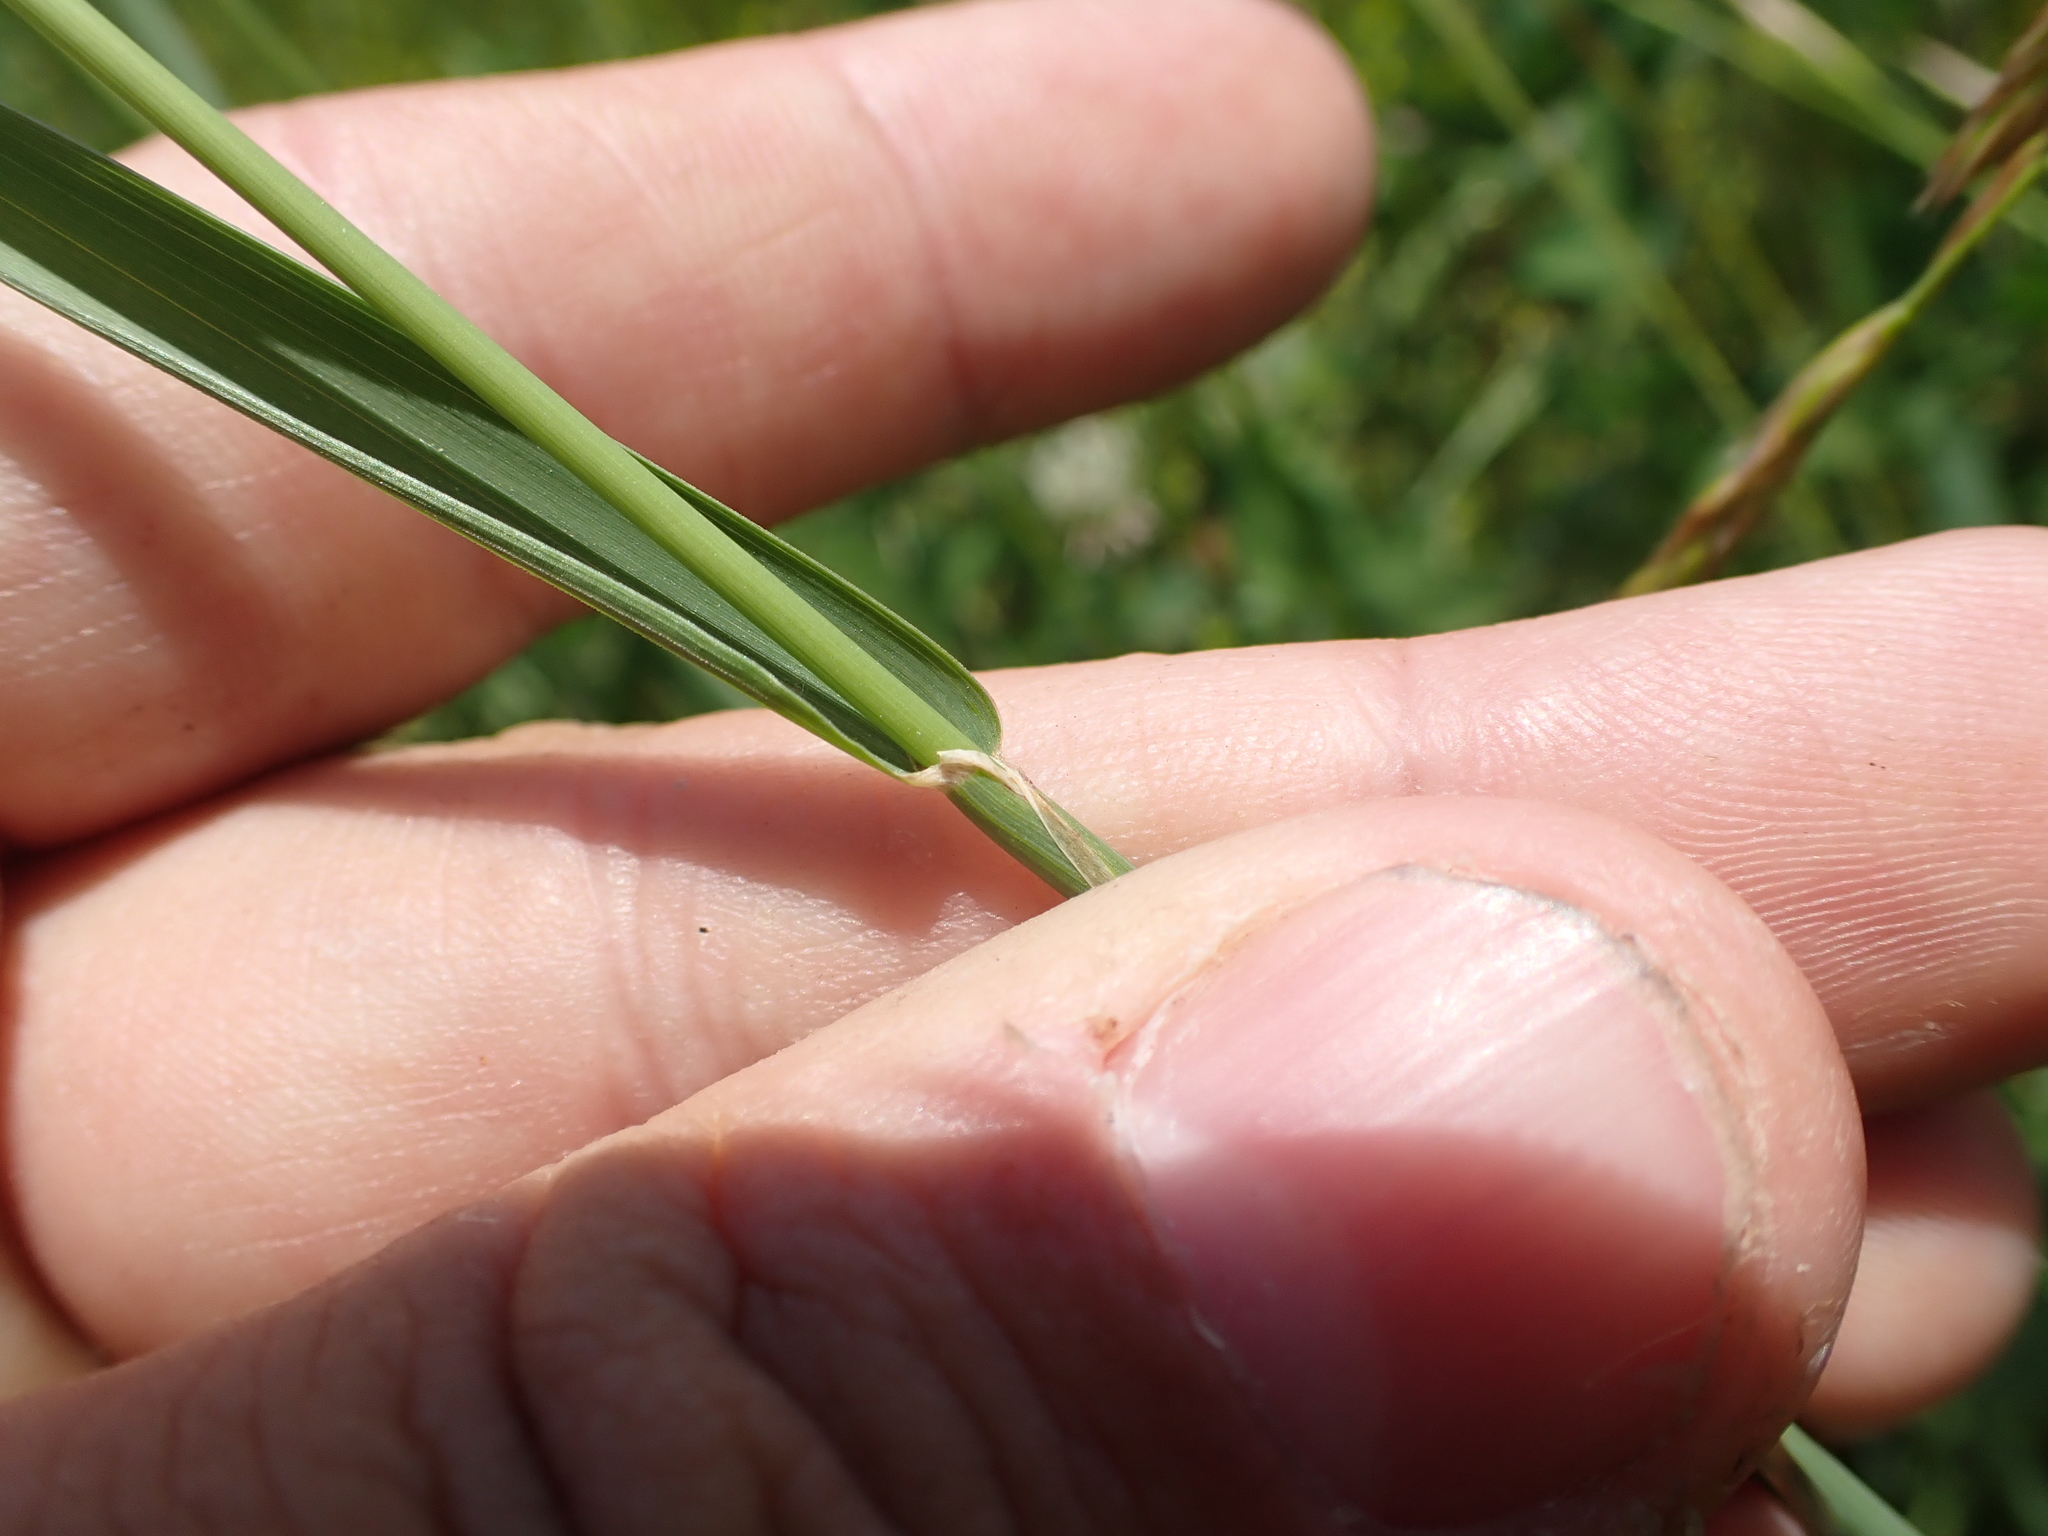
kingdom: Plantae
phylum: Tracheophyta
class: Liliopsida
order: Poales
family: Poaceae
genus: Phleum
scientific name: Phleum pratense
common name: Timothy grass
